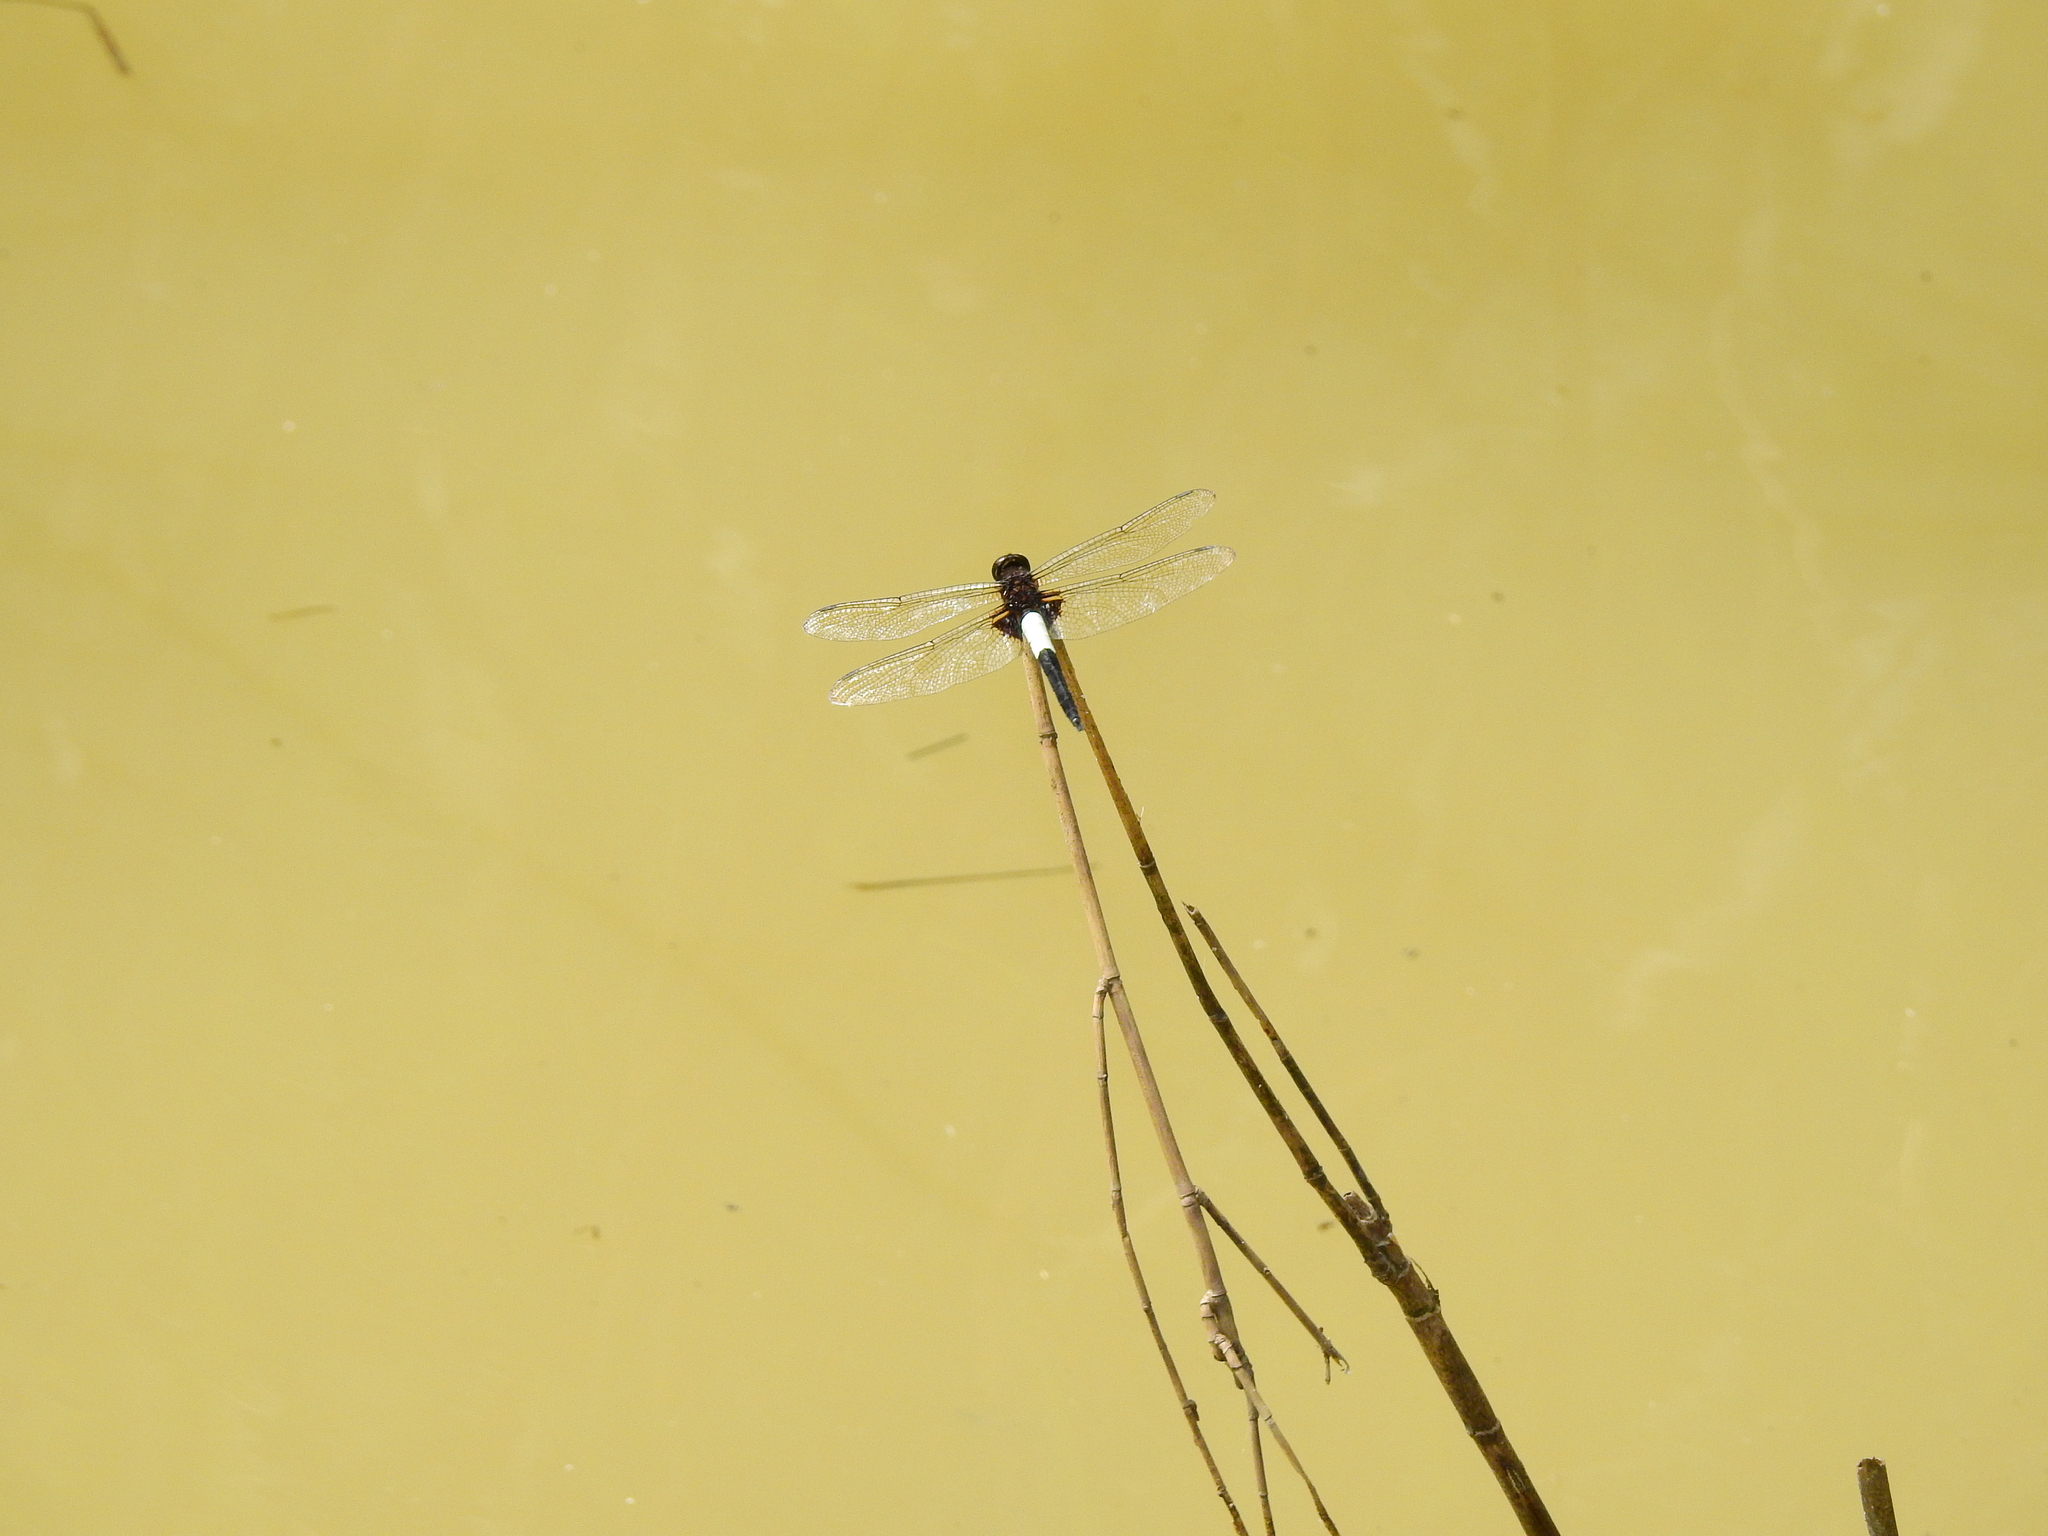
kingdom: Animalia
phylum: Arthropoda
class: Insecta
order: Odonata
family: Libellulidae
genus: Pseudothemis
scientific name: Pseudothemis zonata
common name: Pied skimmer
